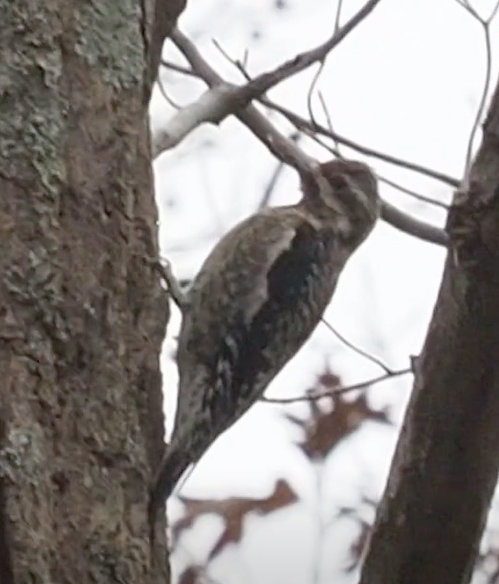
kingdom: Animalia
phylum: Chordata
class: Aves
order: Piciformes
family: Picidae
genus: Sphyrapicus
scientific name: Sphyrapicus varius
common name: Yellow-bellied sapsucker
